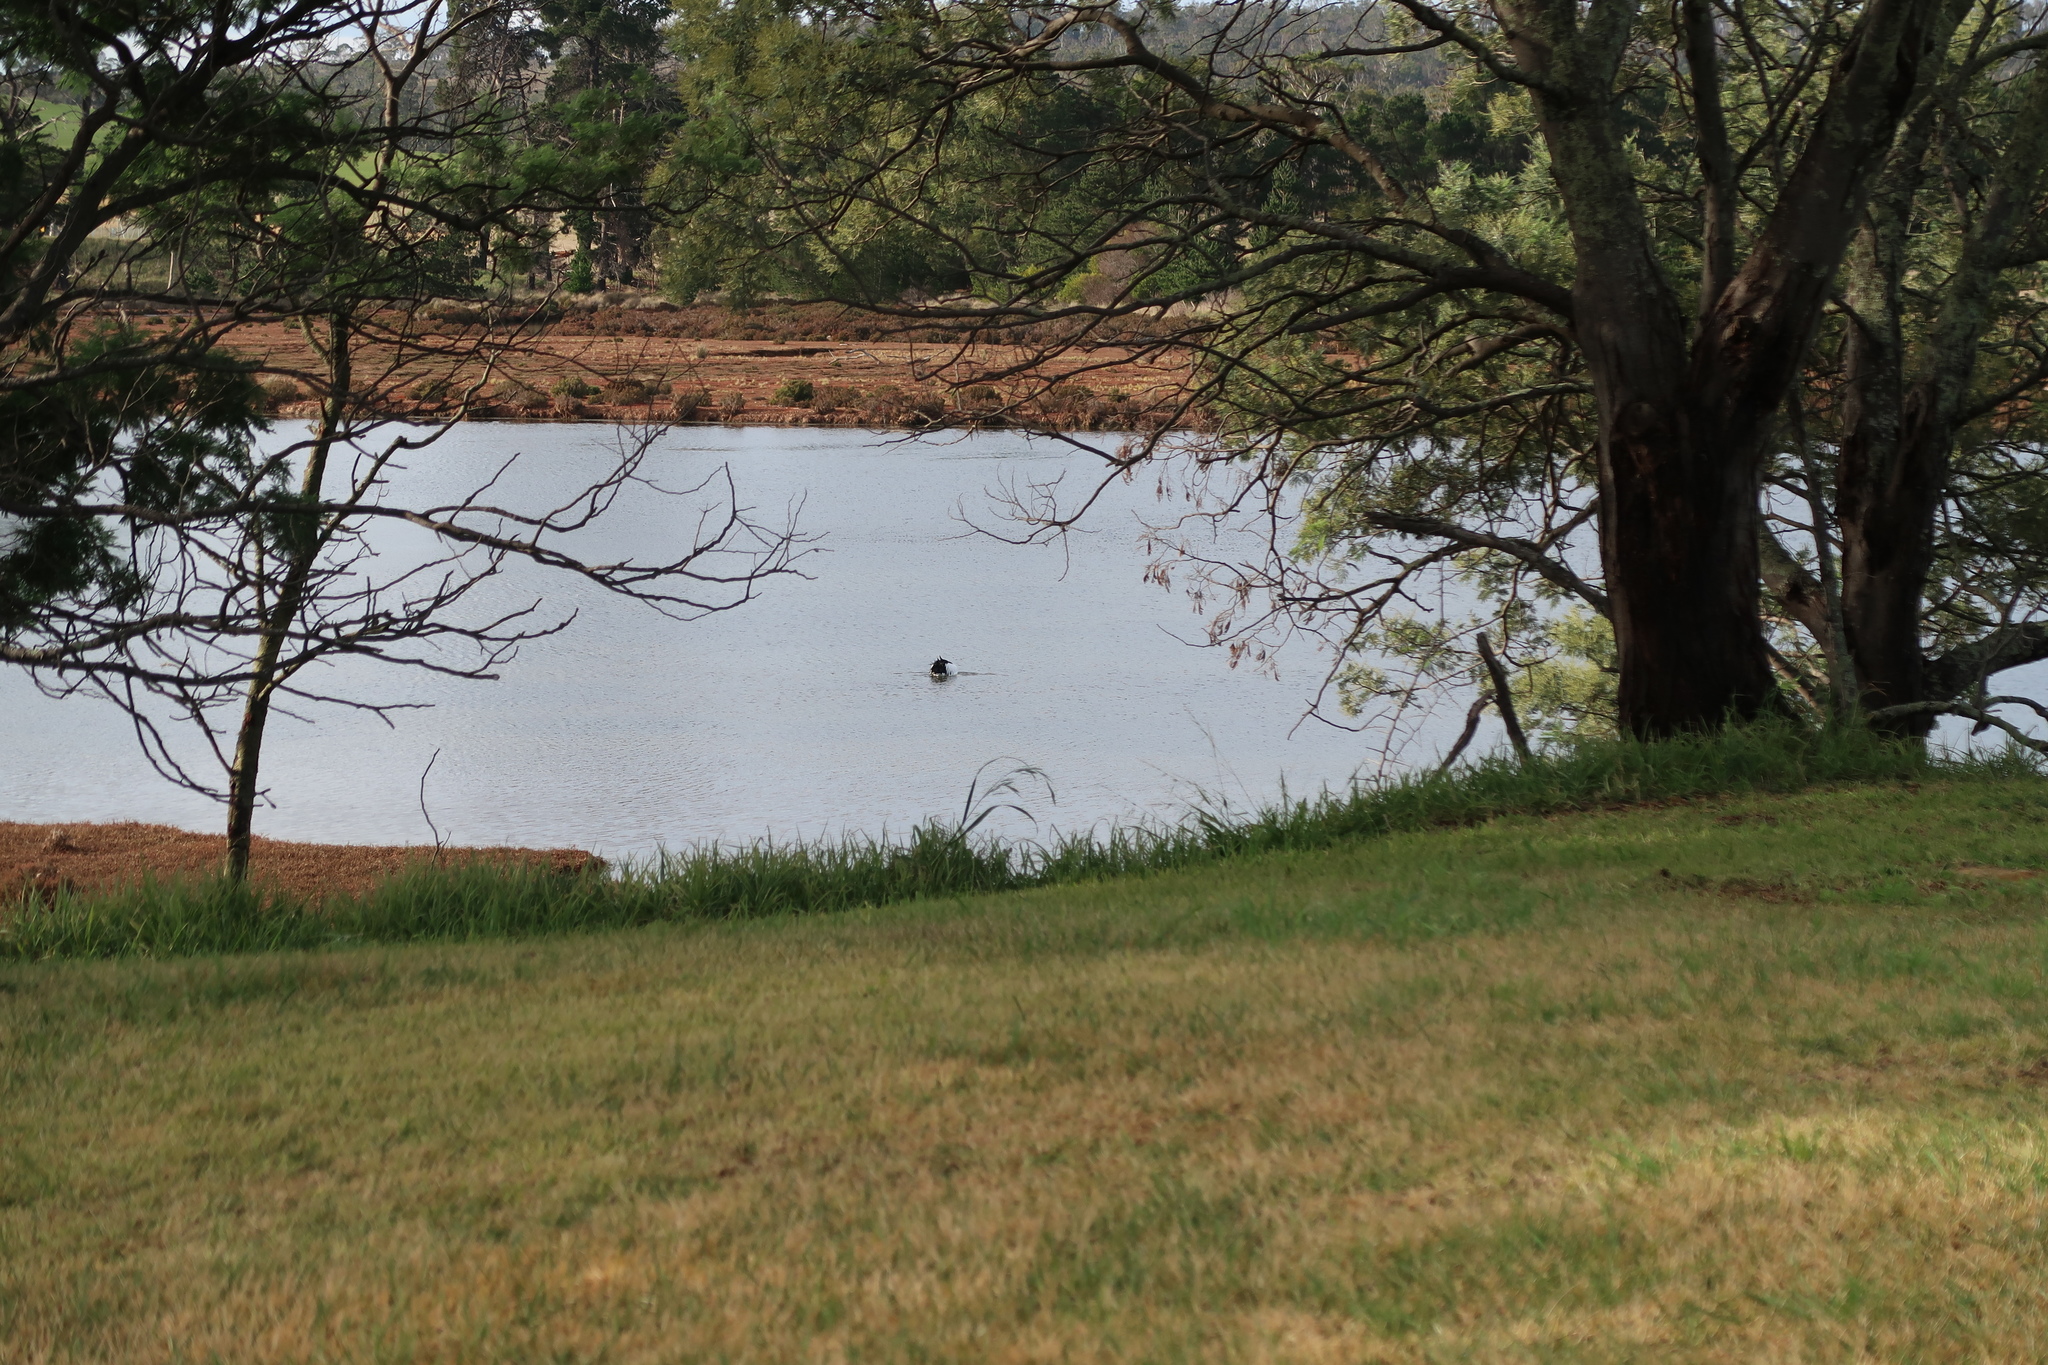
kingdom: Animalia
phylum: Chordata
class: Aves
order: Pelecaniformes
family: Pelecanidae
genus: Pelecanus
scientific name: Pelecanus conspicillatus
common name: Australian pelican
